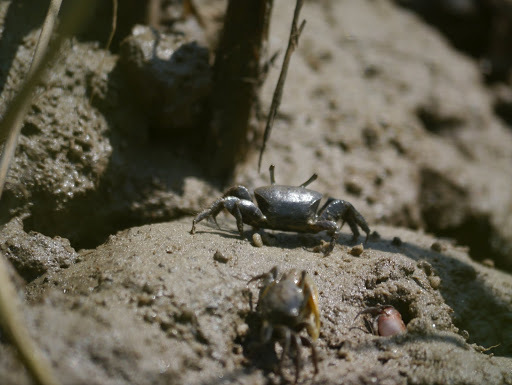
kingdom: Animalia
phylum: Arthropoda
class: Malacostraca
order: Decapoda
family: Ocypodidae
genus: Minuca
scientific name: Minuca pugnax
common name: Mud fiddler crab
